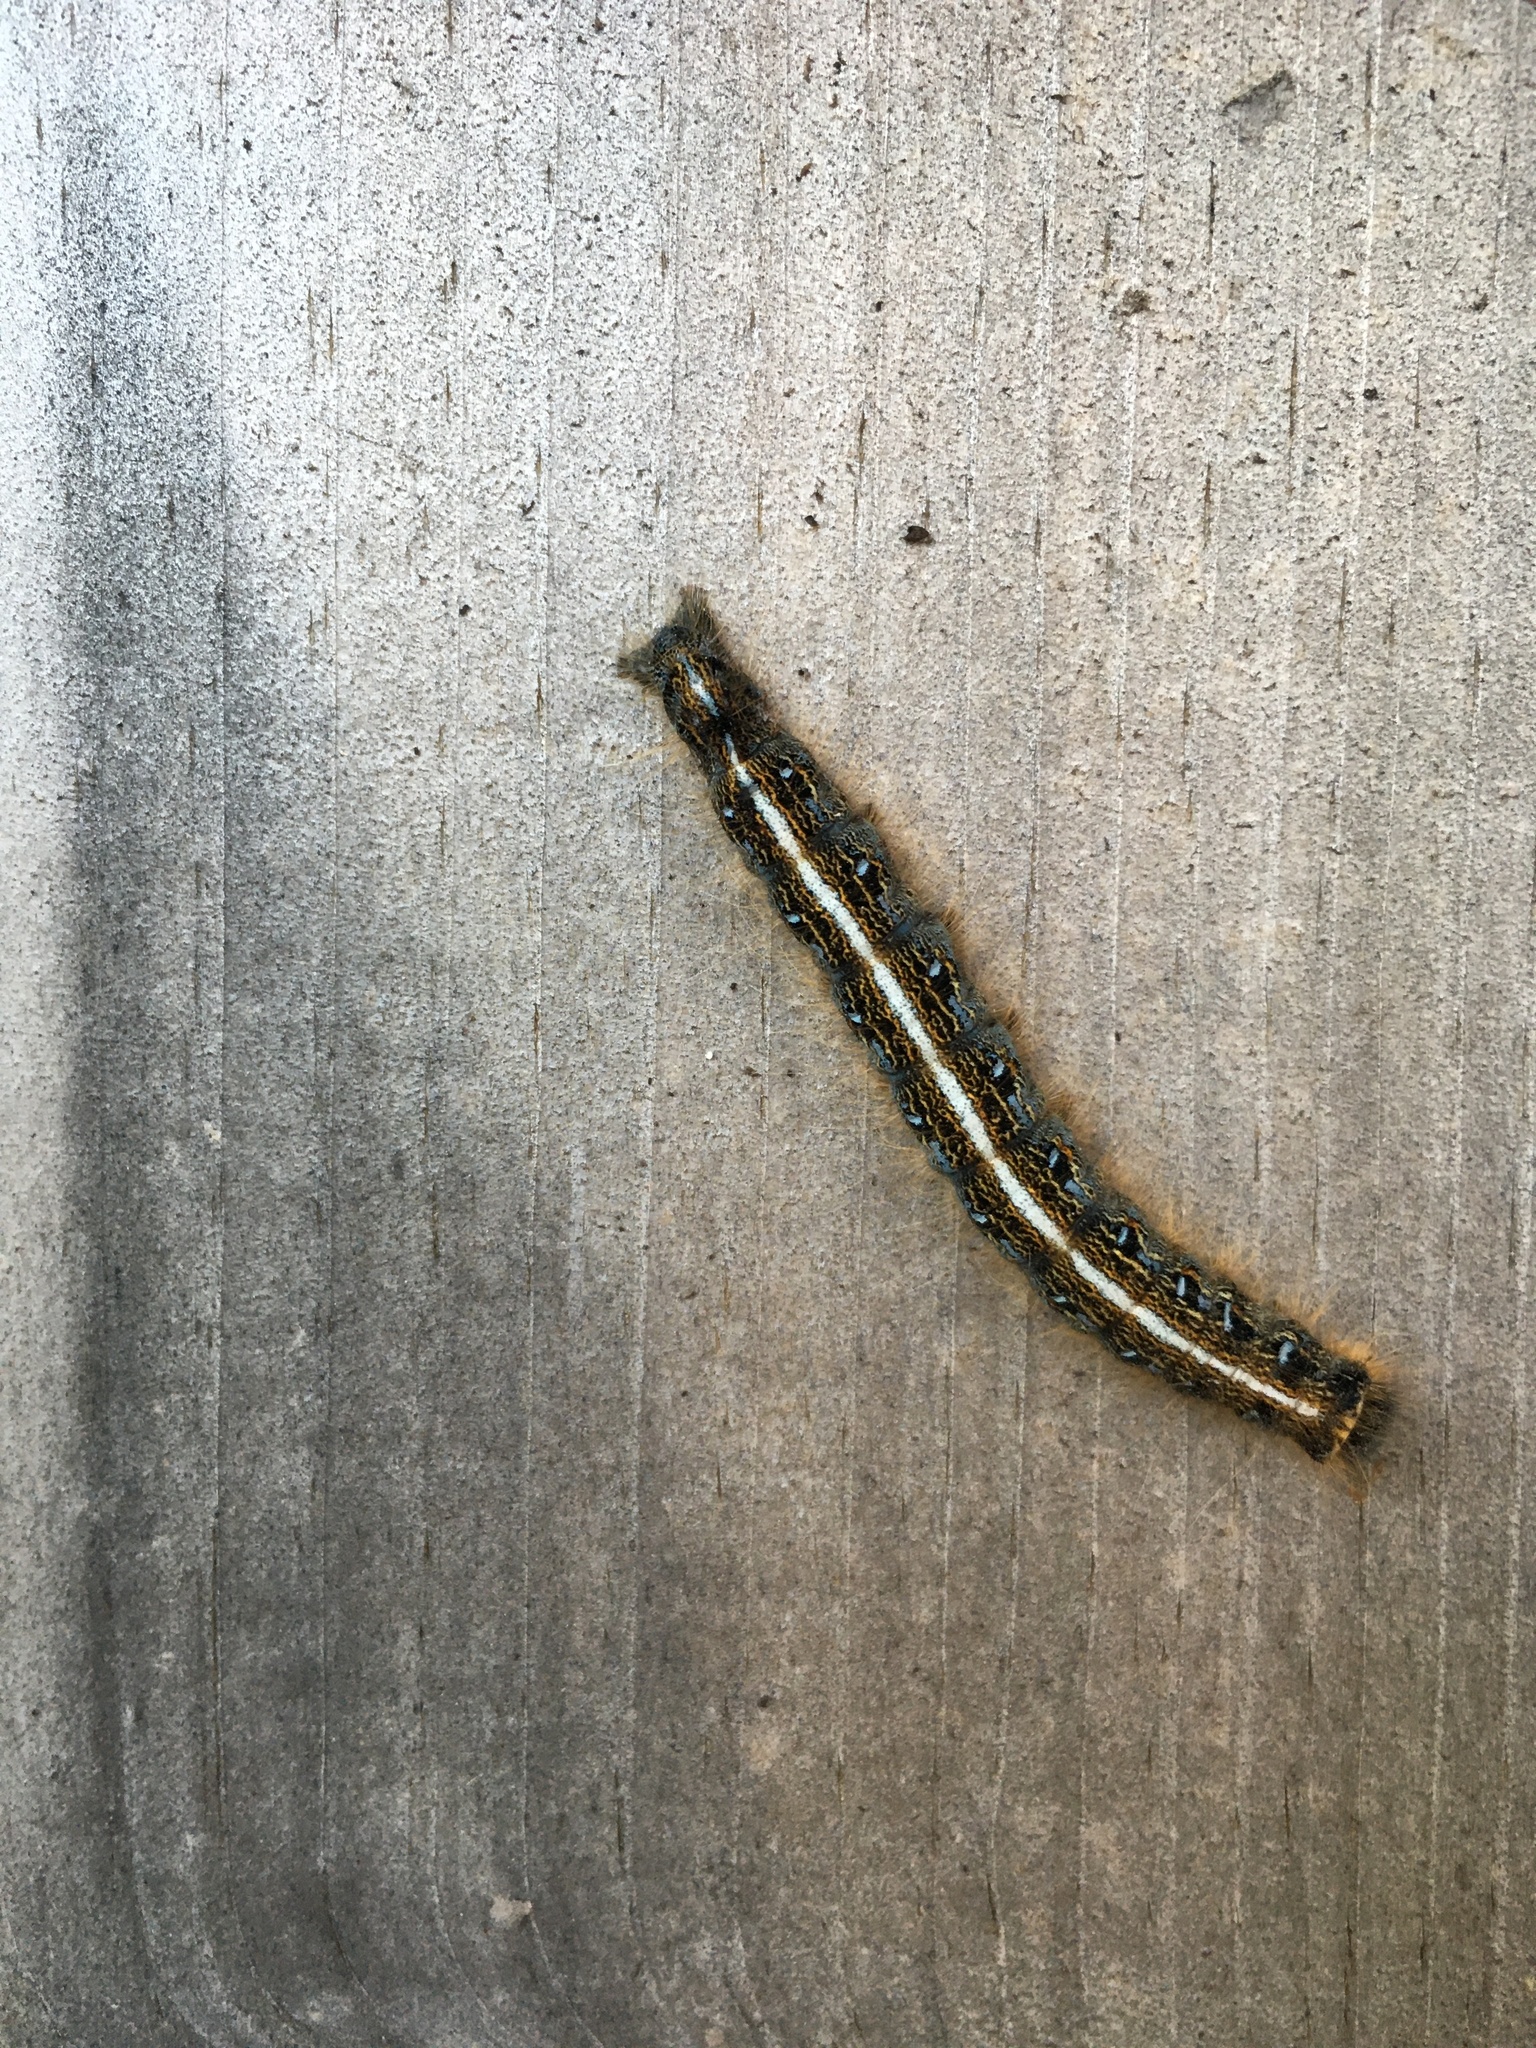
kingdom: Animalia
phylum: Arthropoda
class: Insecta
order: Lepidoptera
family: Lasiocampidae
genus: Malacosoma
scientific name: Malacosoma americana
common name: Eastern tent caterpillar moth
